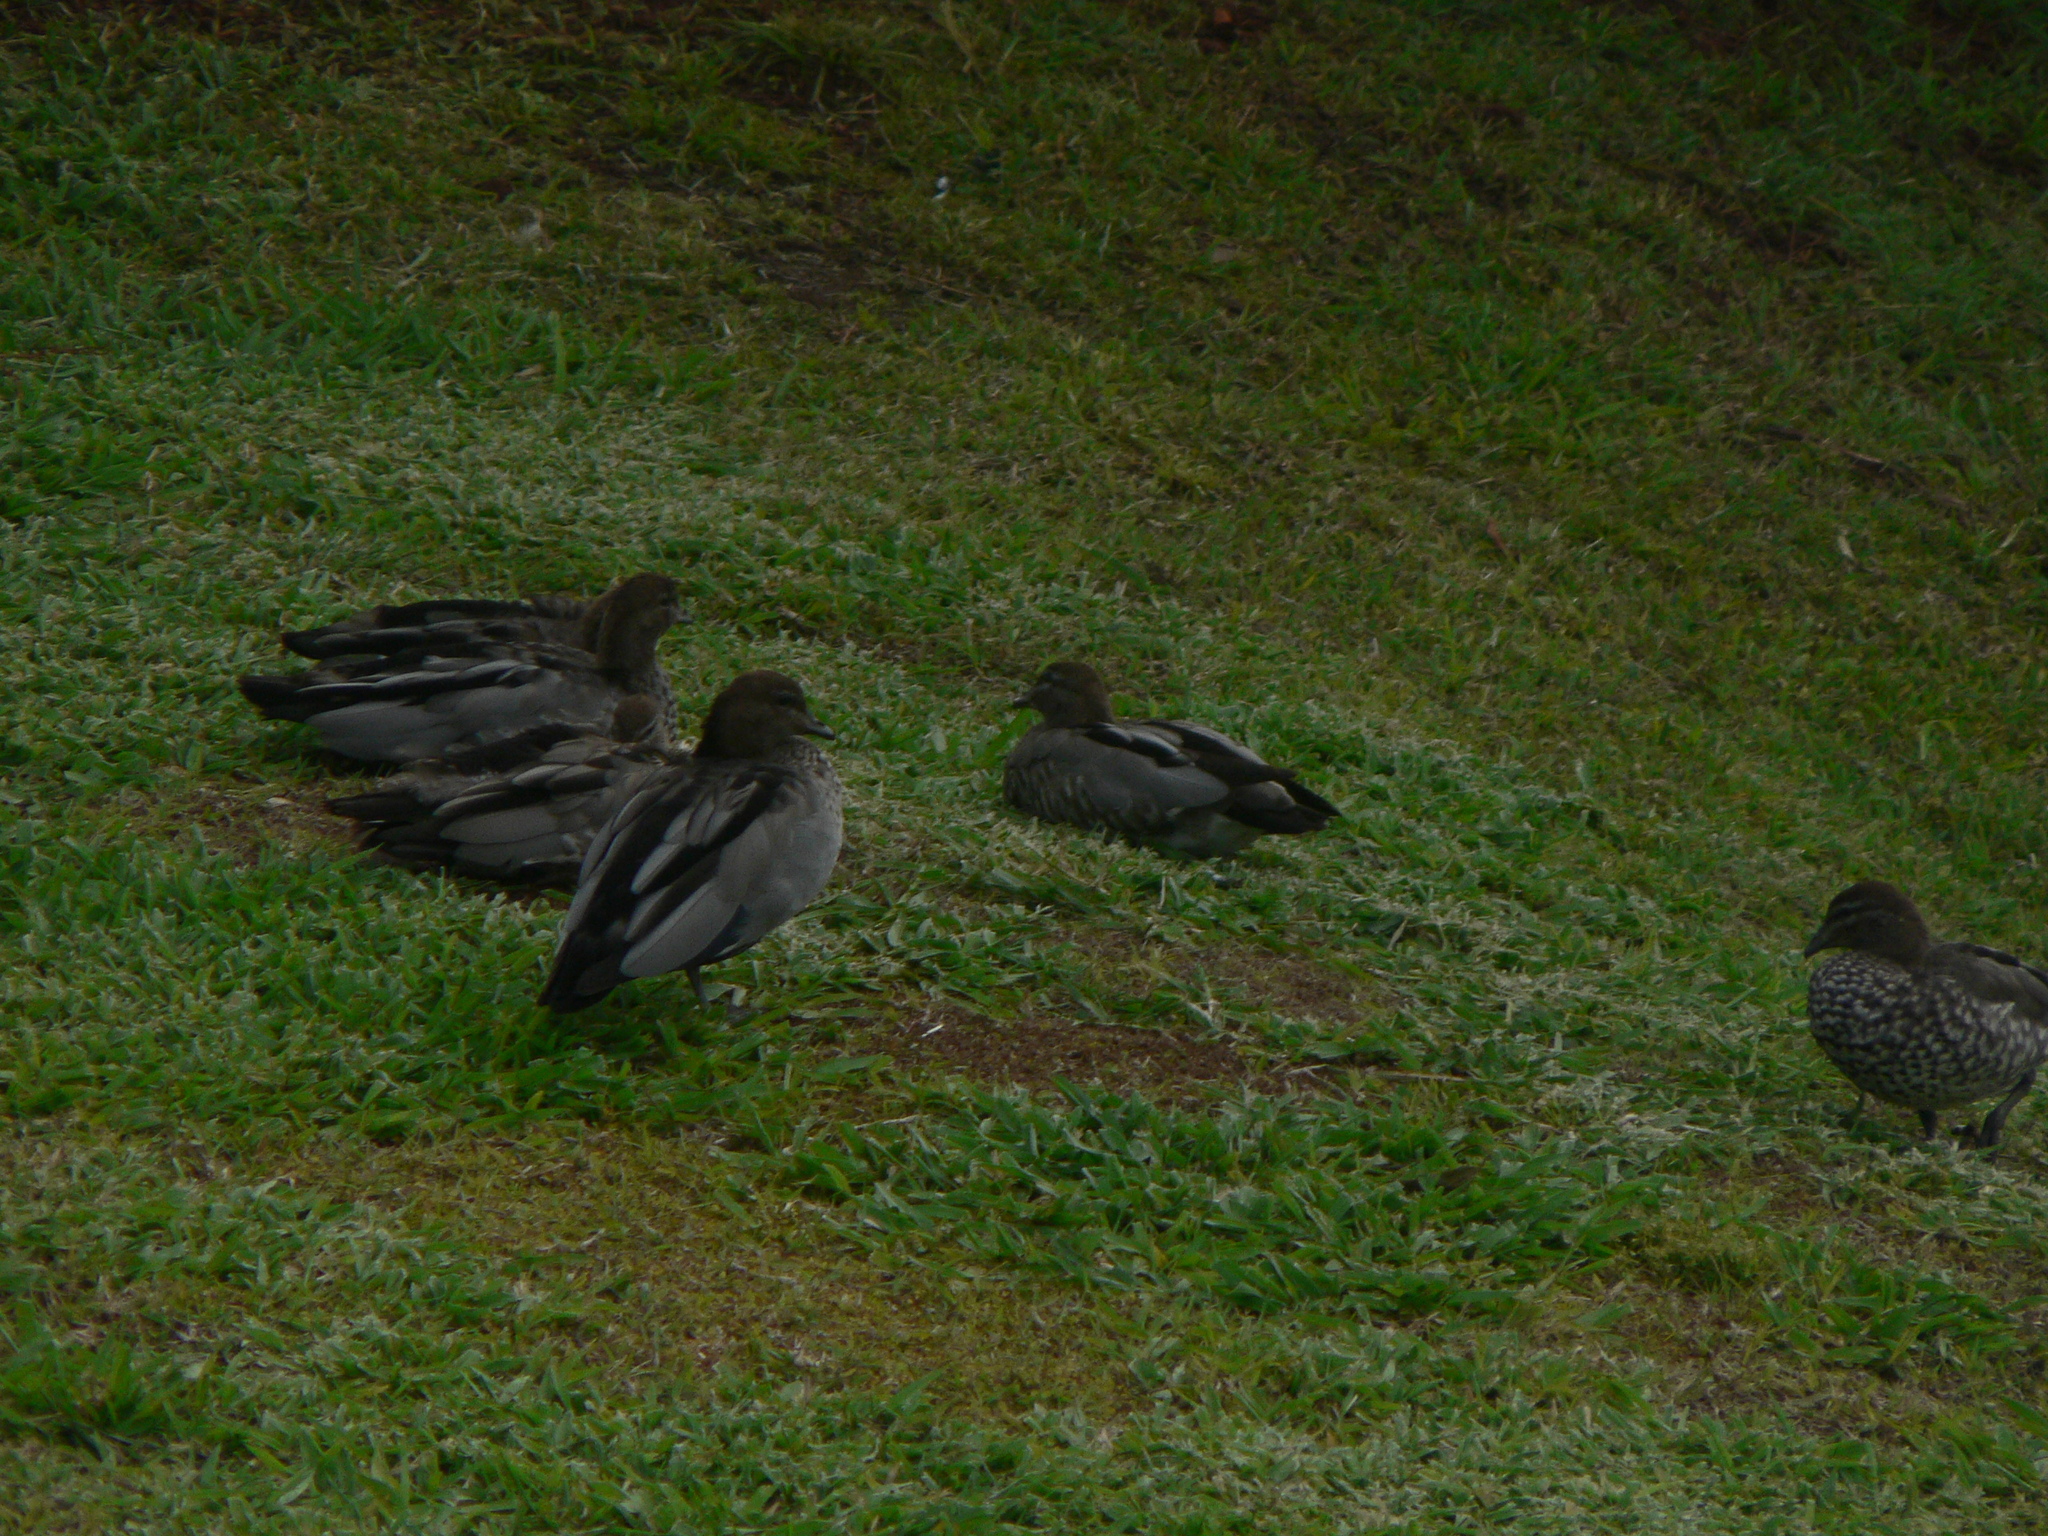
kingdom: Animalia
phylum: Chordata
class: Aves
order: Anseriformes
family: Anatidae
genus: Chenonetta
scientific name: Chenonetta jubata
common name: Maned duck
